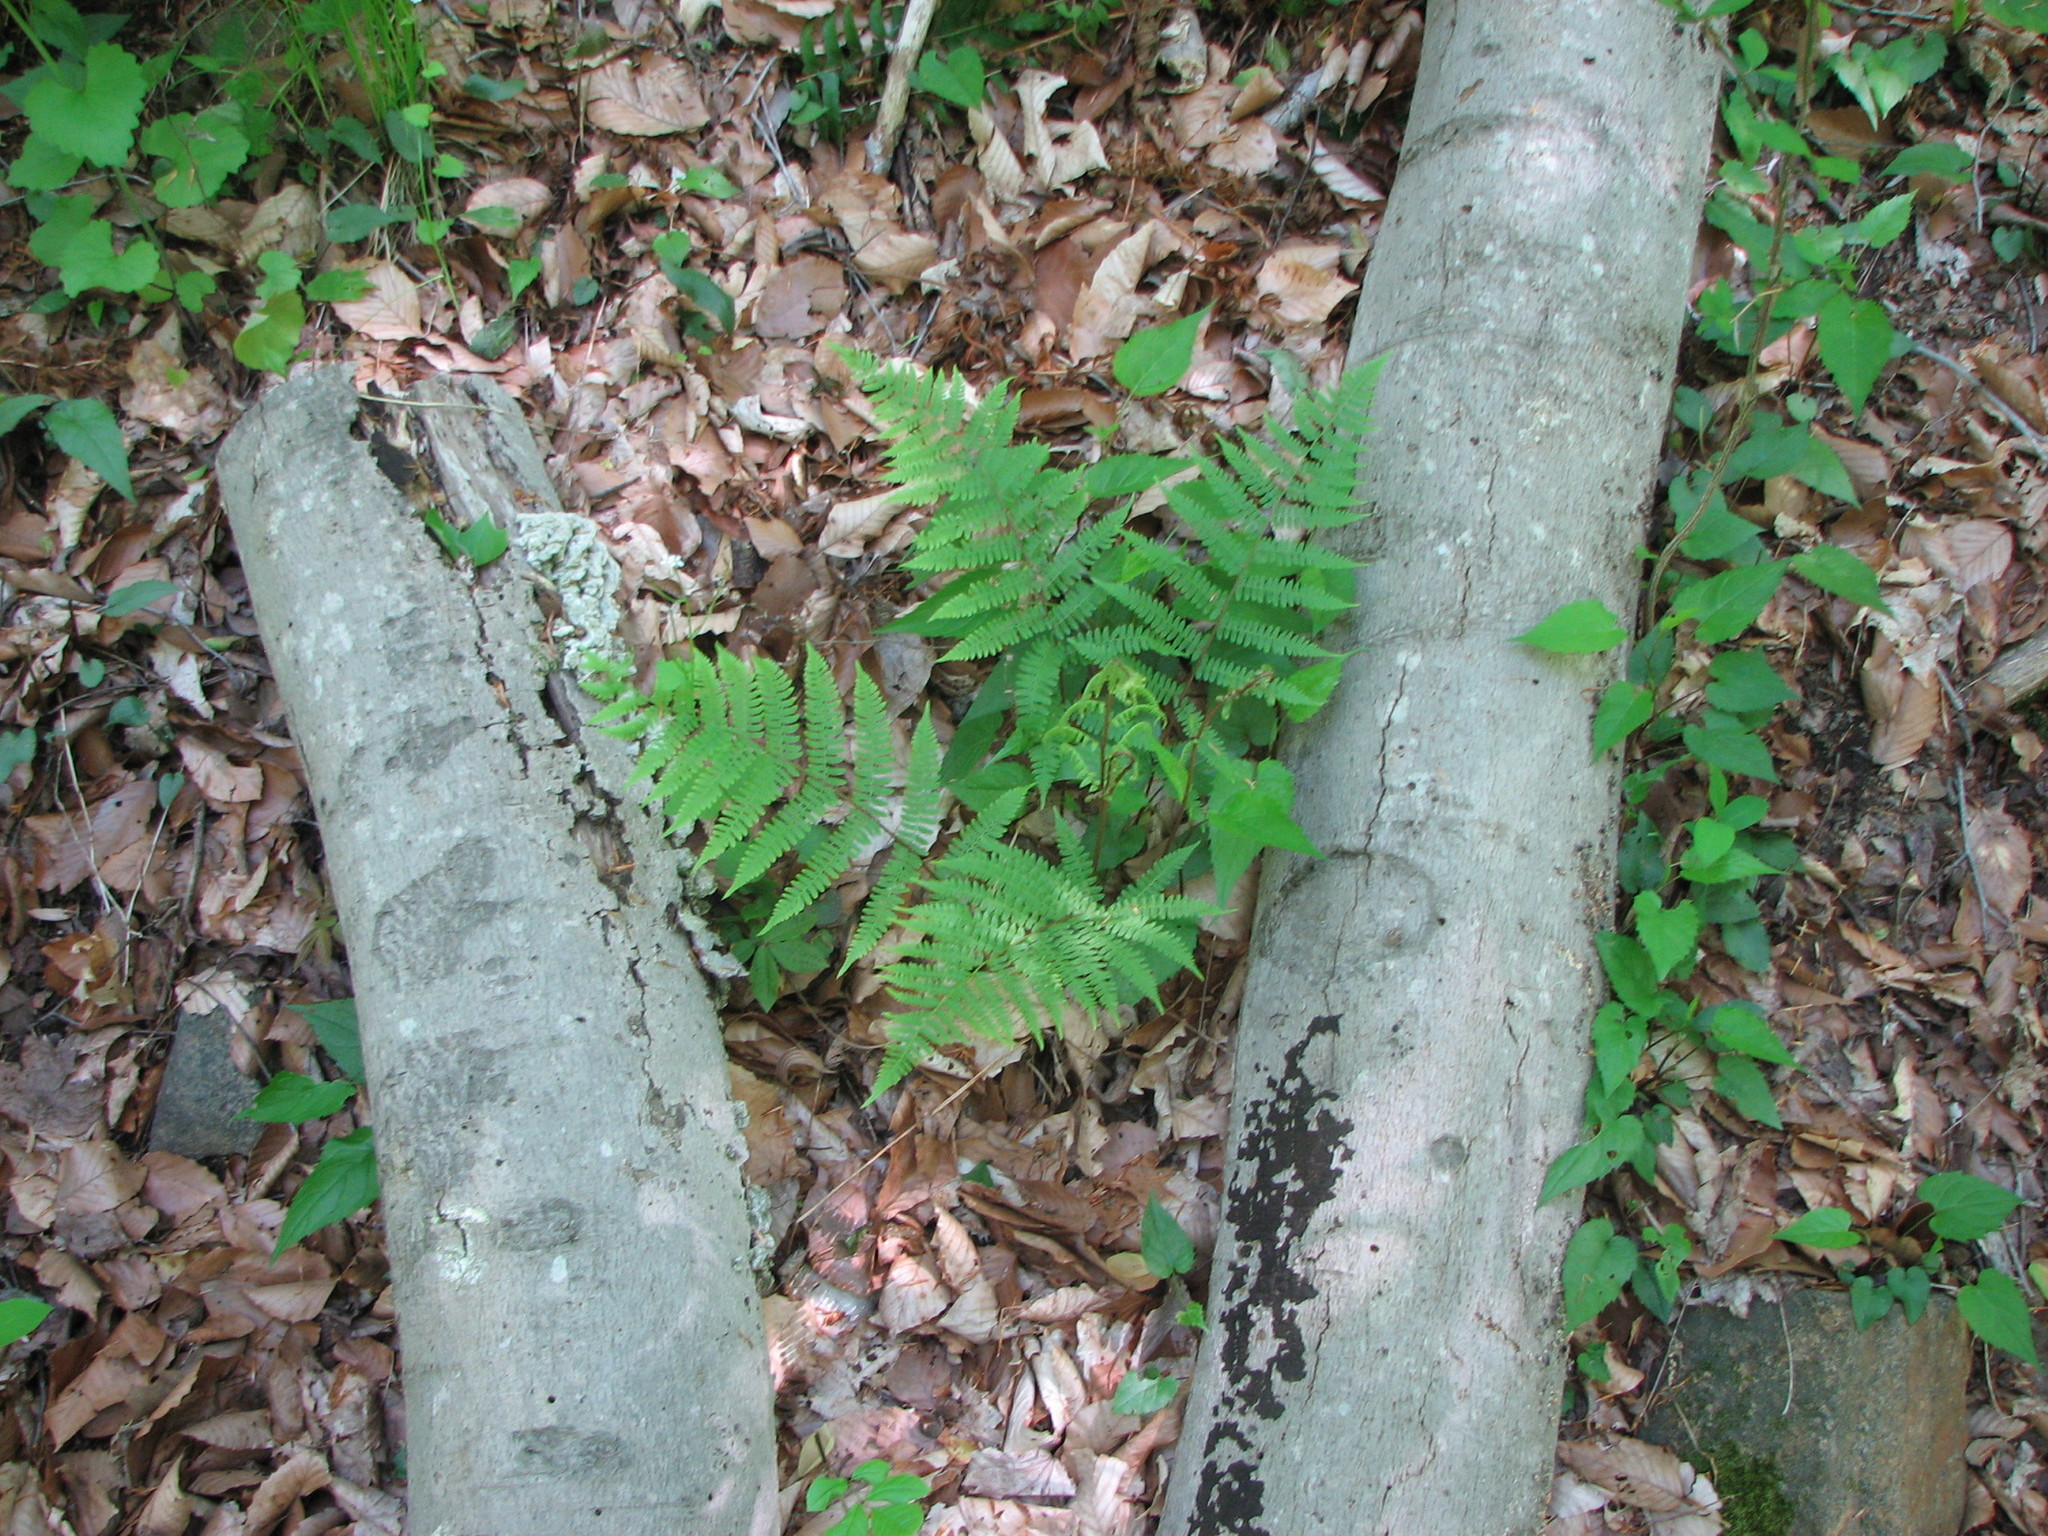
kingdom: Plantae
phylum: Tracheophyta
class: Polypodiopsida
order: Polypodiales
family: Athyriaceae
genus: Athyrium
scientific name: Athyrium asplenioides
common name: Southern lady fern
